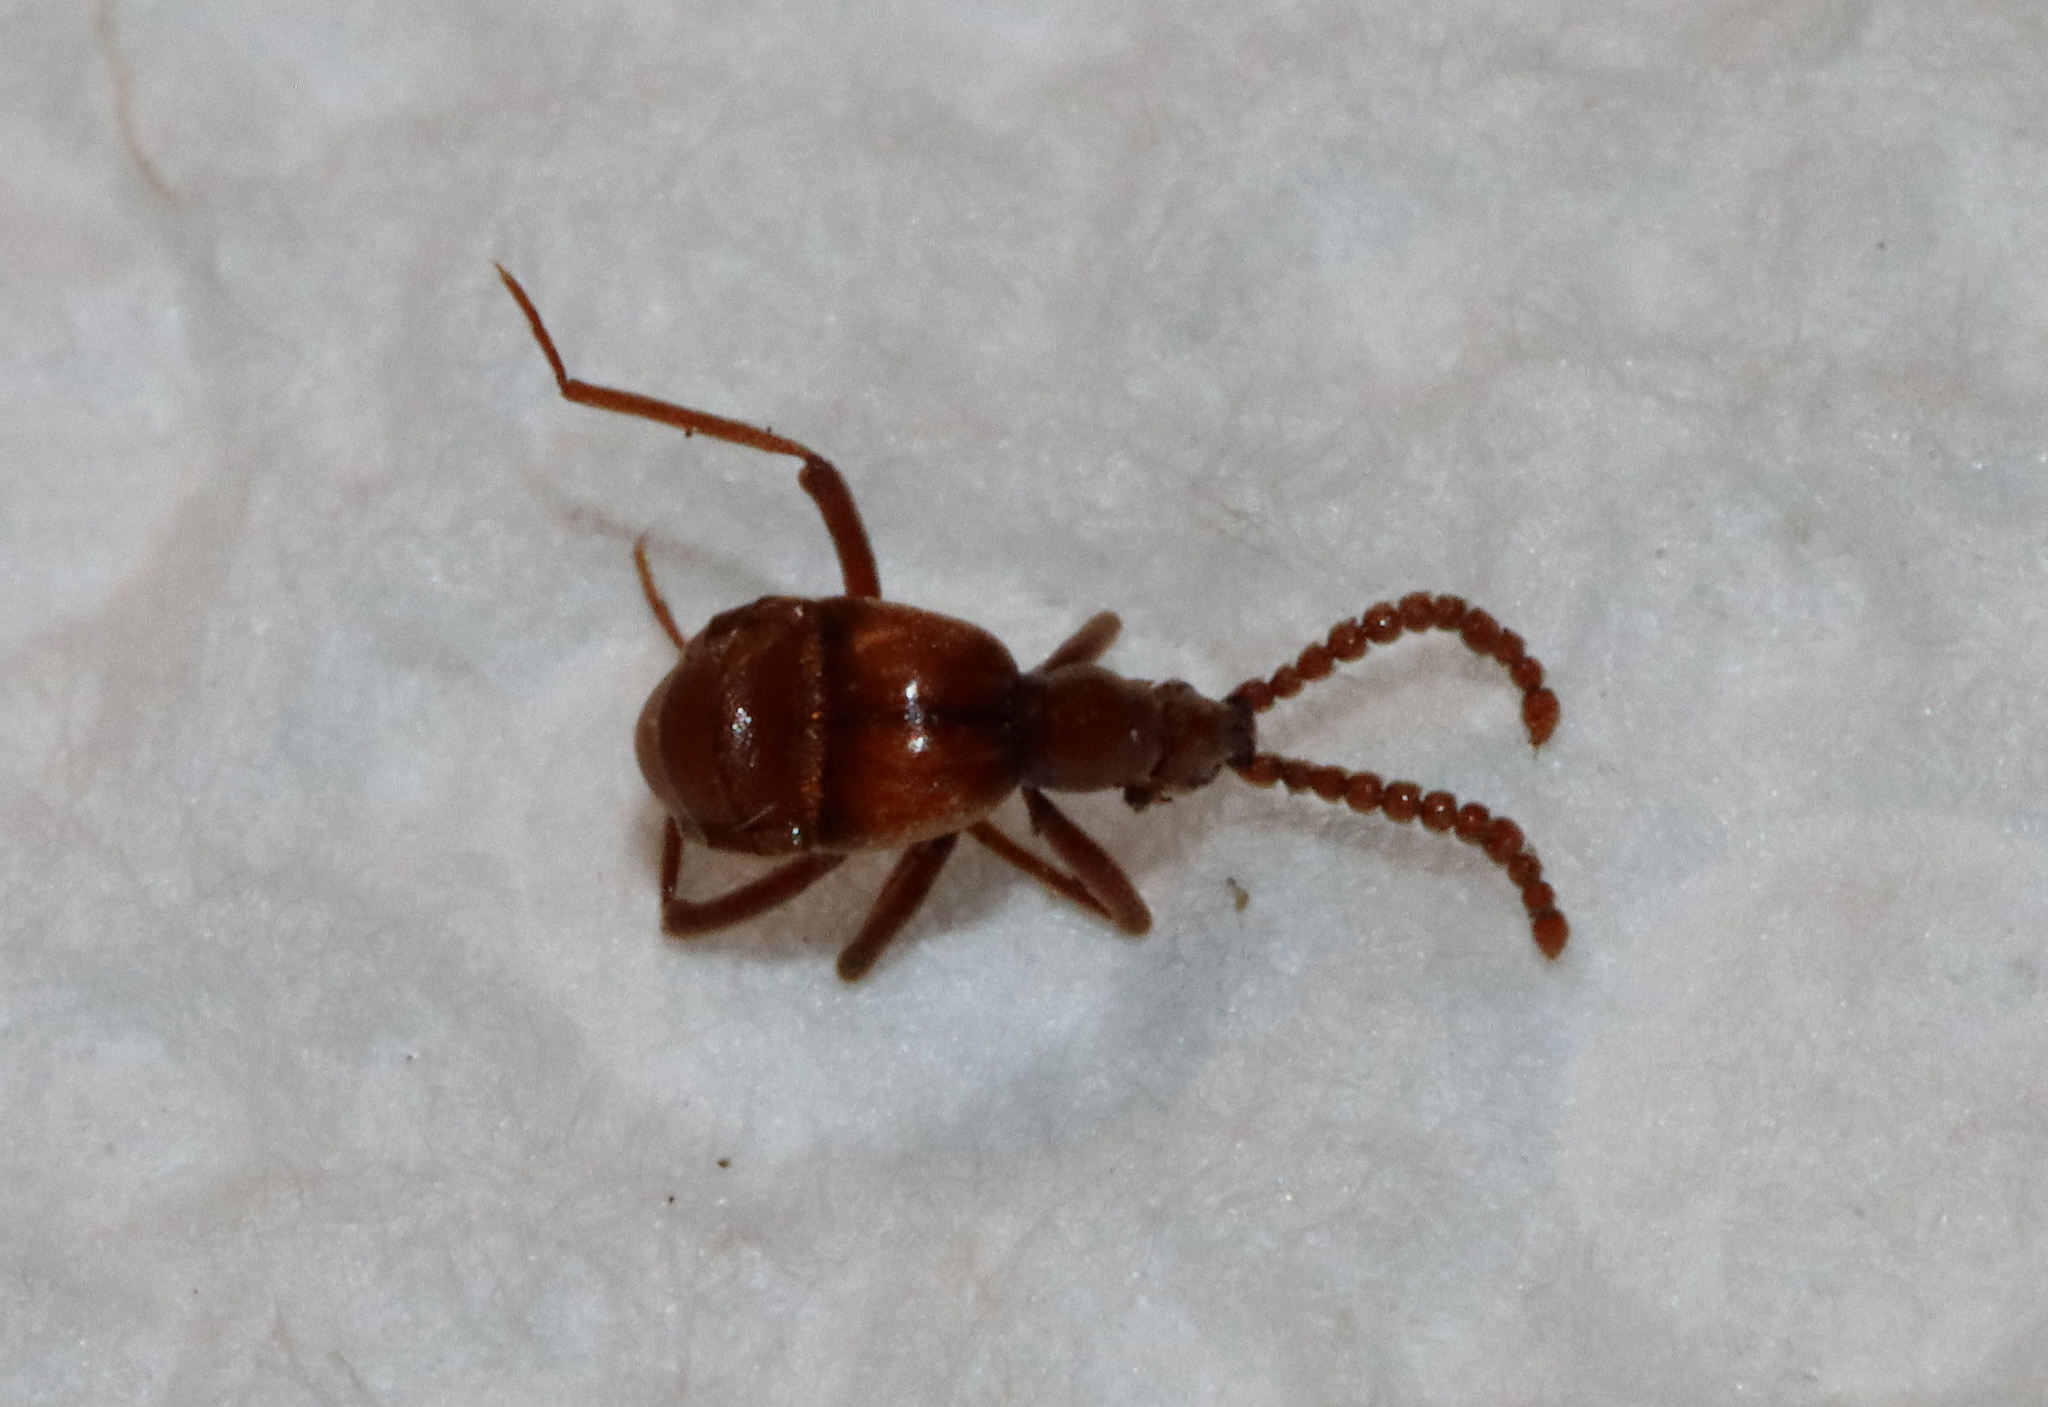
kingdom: Animalia
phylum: Arthropoda
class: Insecta
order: Coleoptera
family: Staphylinidae
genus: Ceophyllus
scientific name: Ceophyllus monilis
